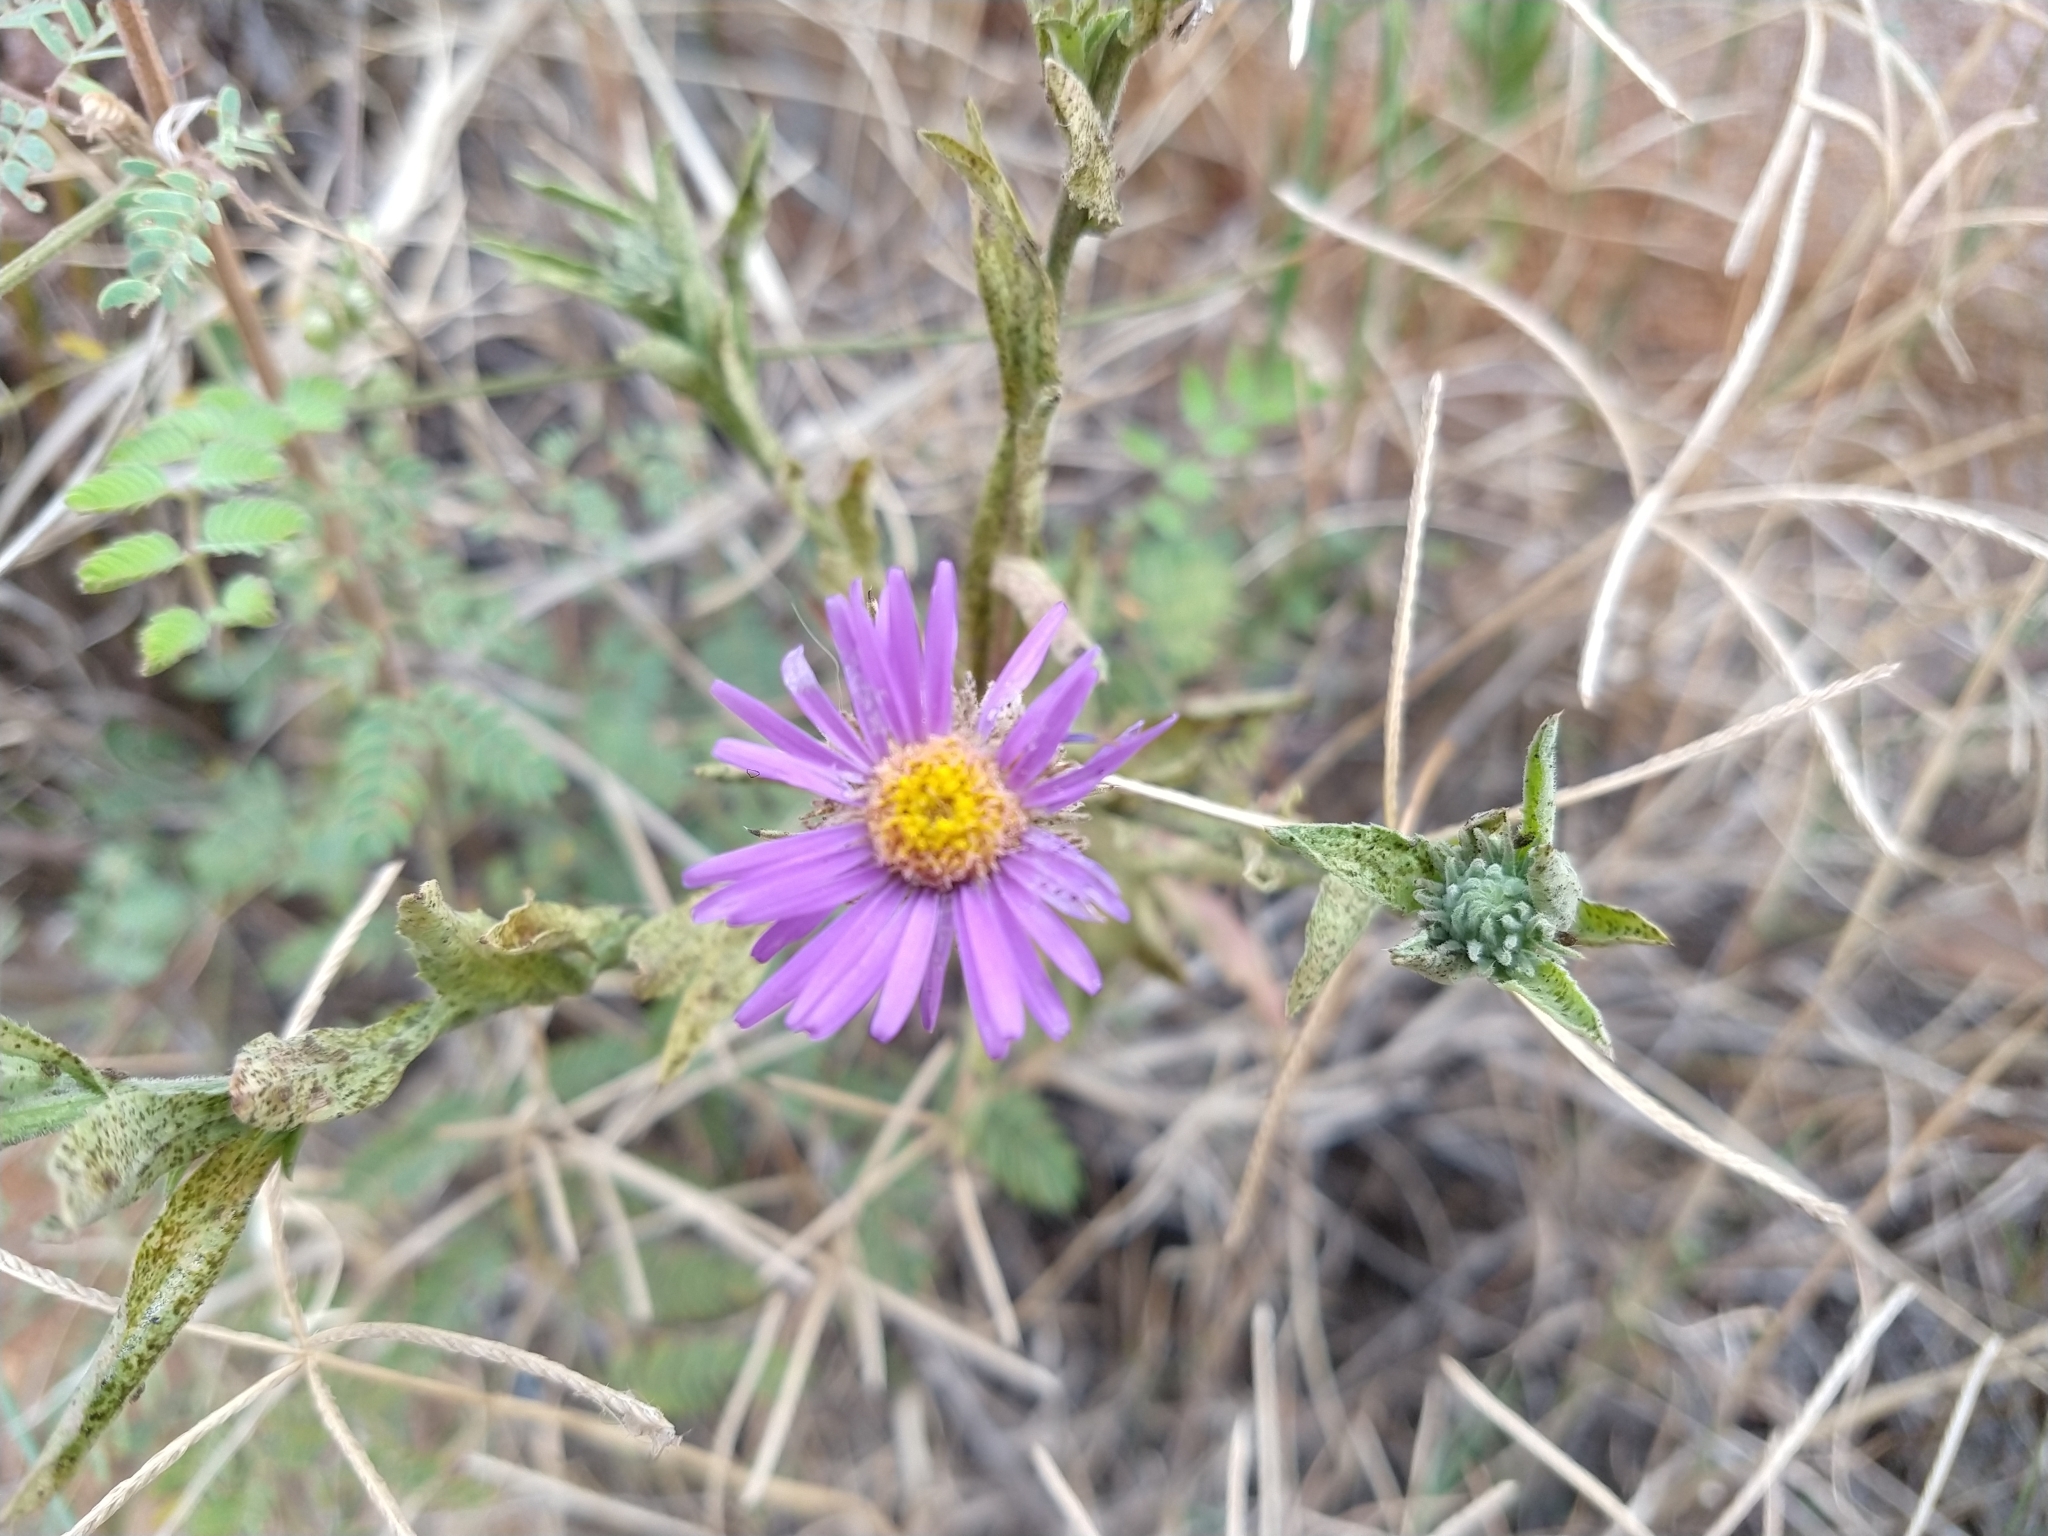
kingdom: Plantae
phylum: Tracheophyta
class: Magnoliopsida
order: Asterales
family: Asteraceae
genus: Dieteria
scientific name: Dieteria asteroides
